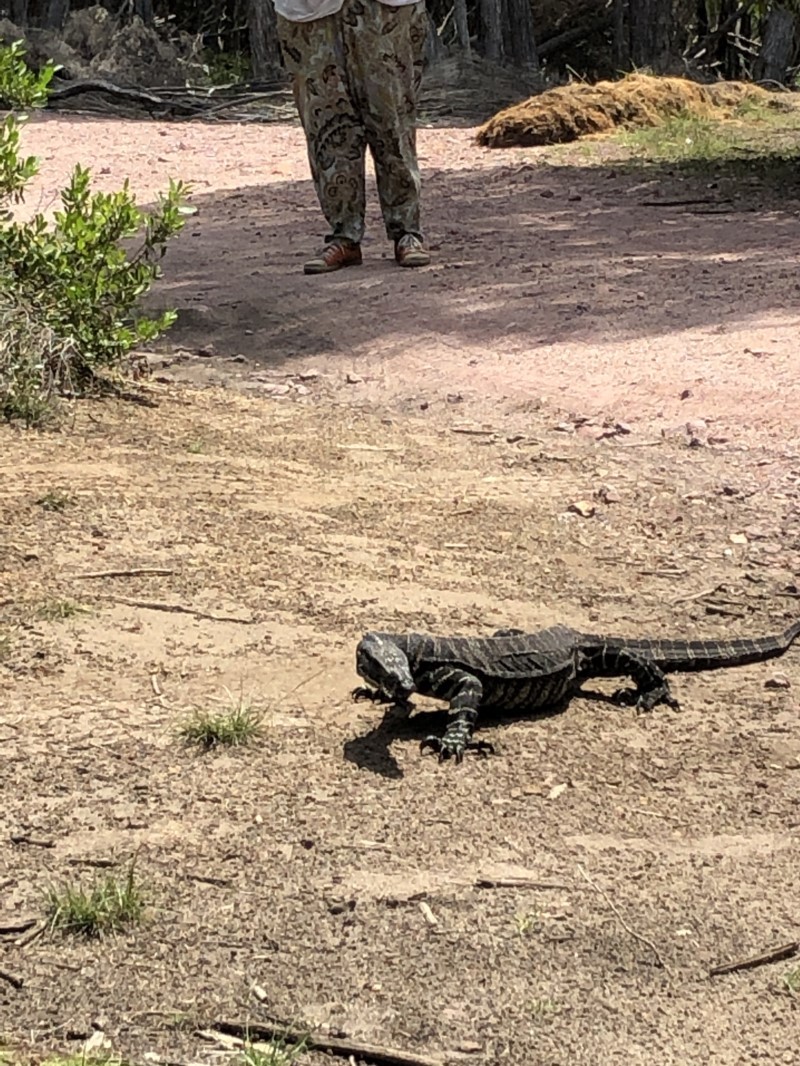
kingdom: Animalia
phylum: Chordata
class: Squamata
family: Varanidae
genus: Varanus
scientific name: Varanus varius
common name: Lace monitor
